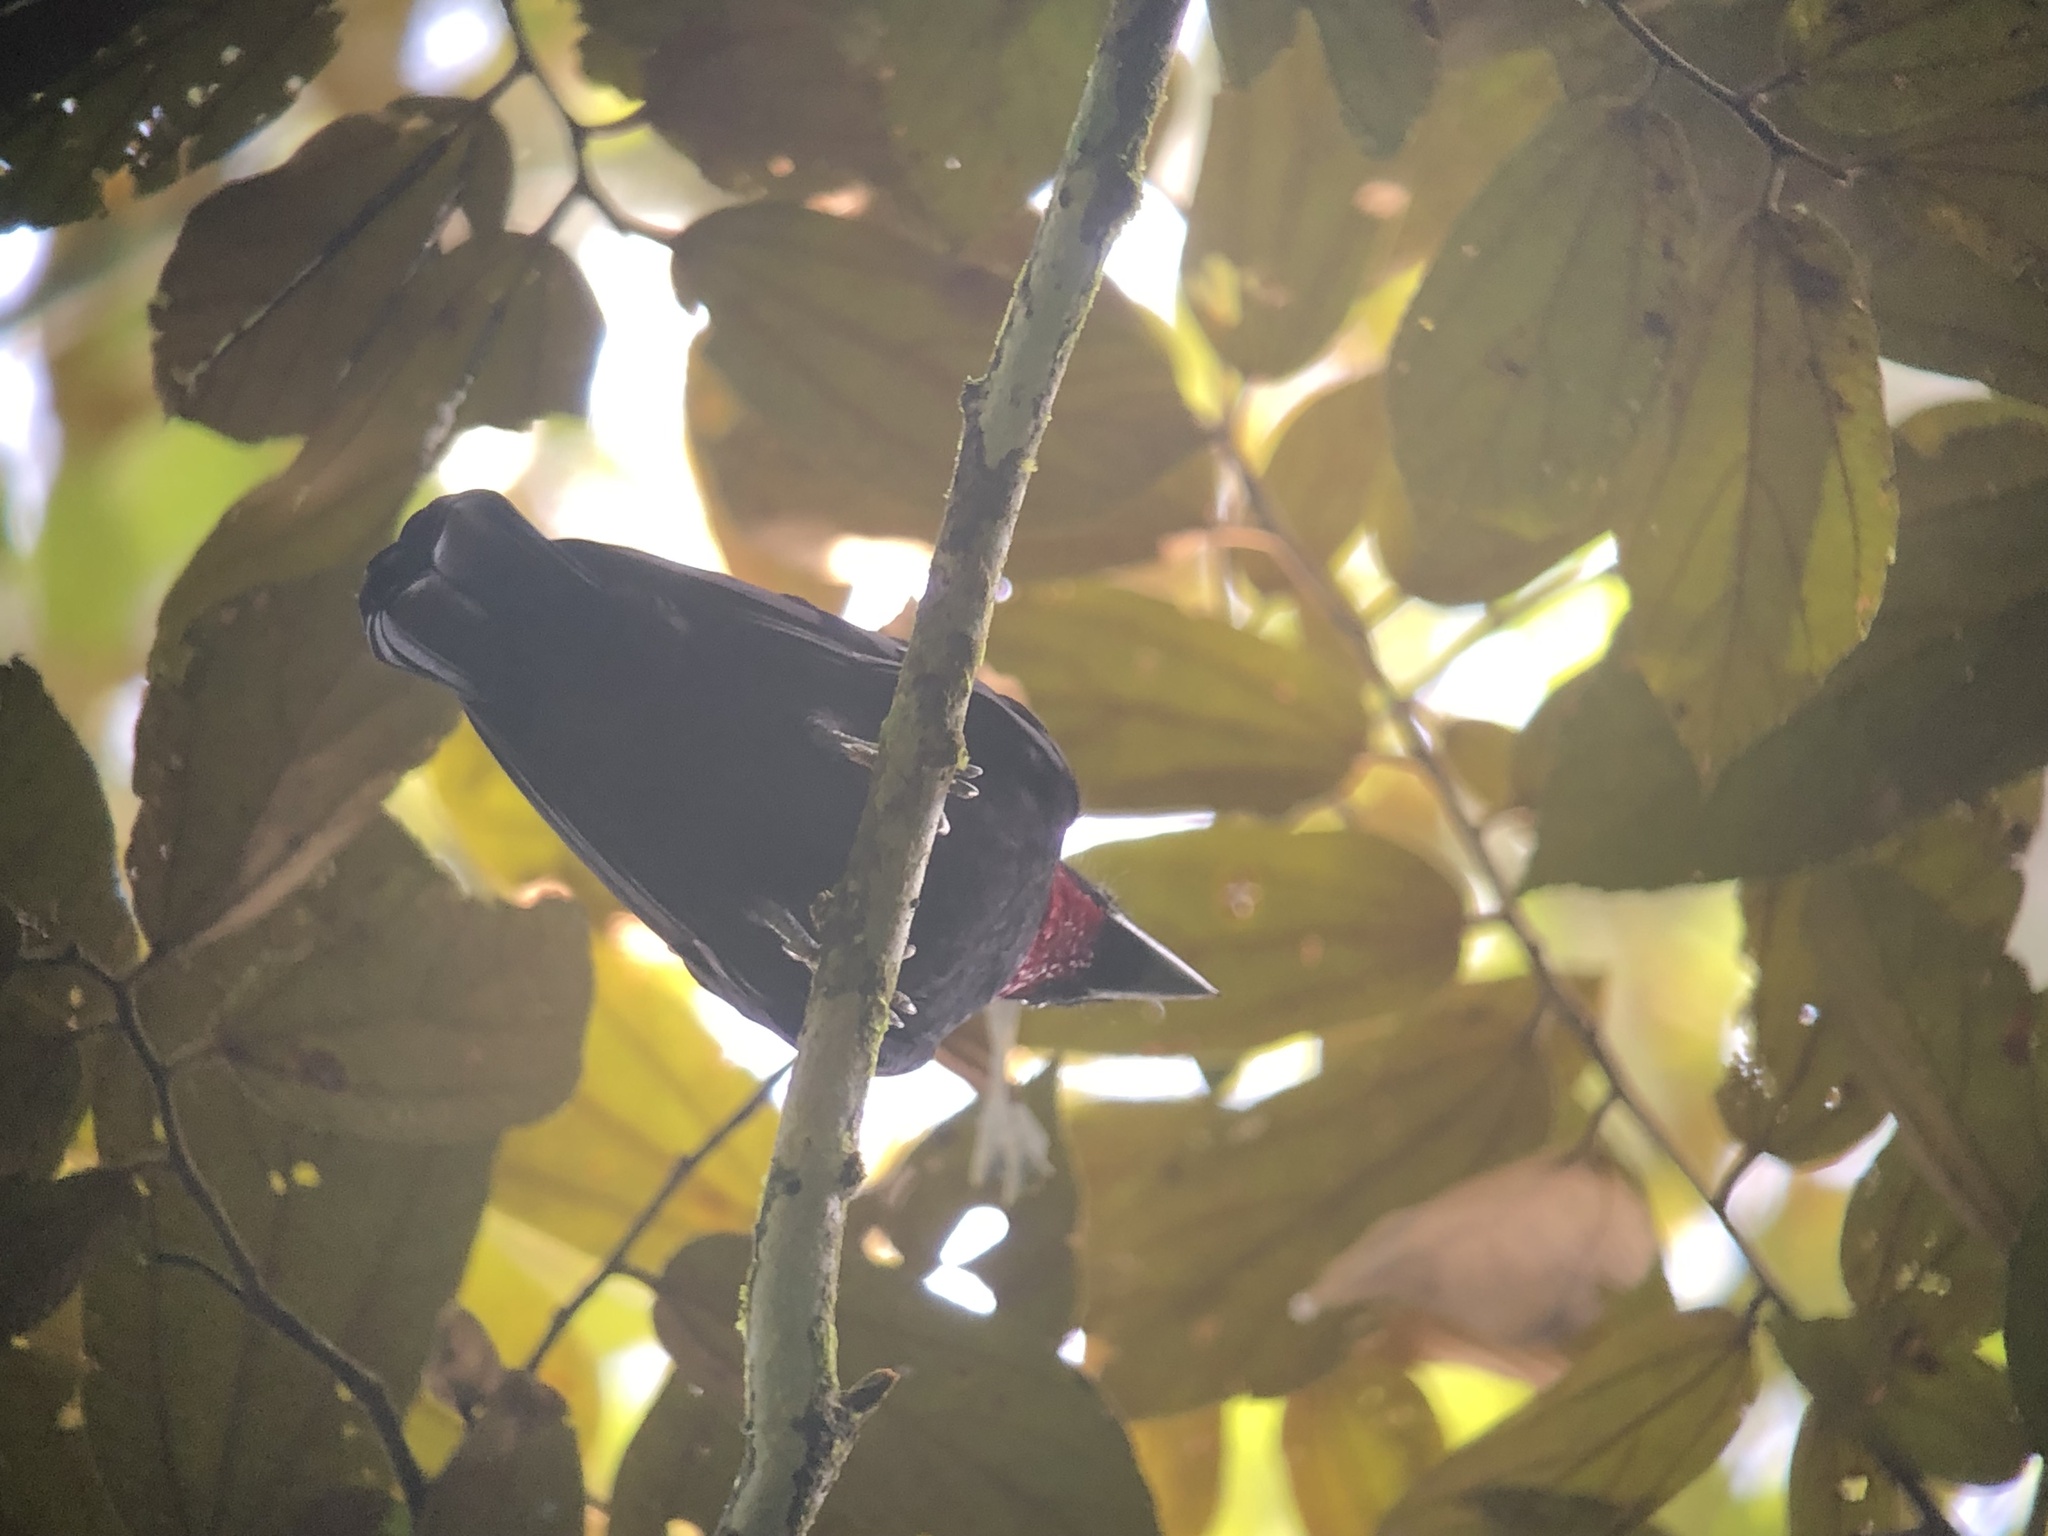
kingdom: Animalia
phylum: Chordata
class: Aves
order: Passeriformes
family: Cotingidae
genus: Querula
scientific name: Querula purpurata
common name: Purple-throated fruitcrow
